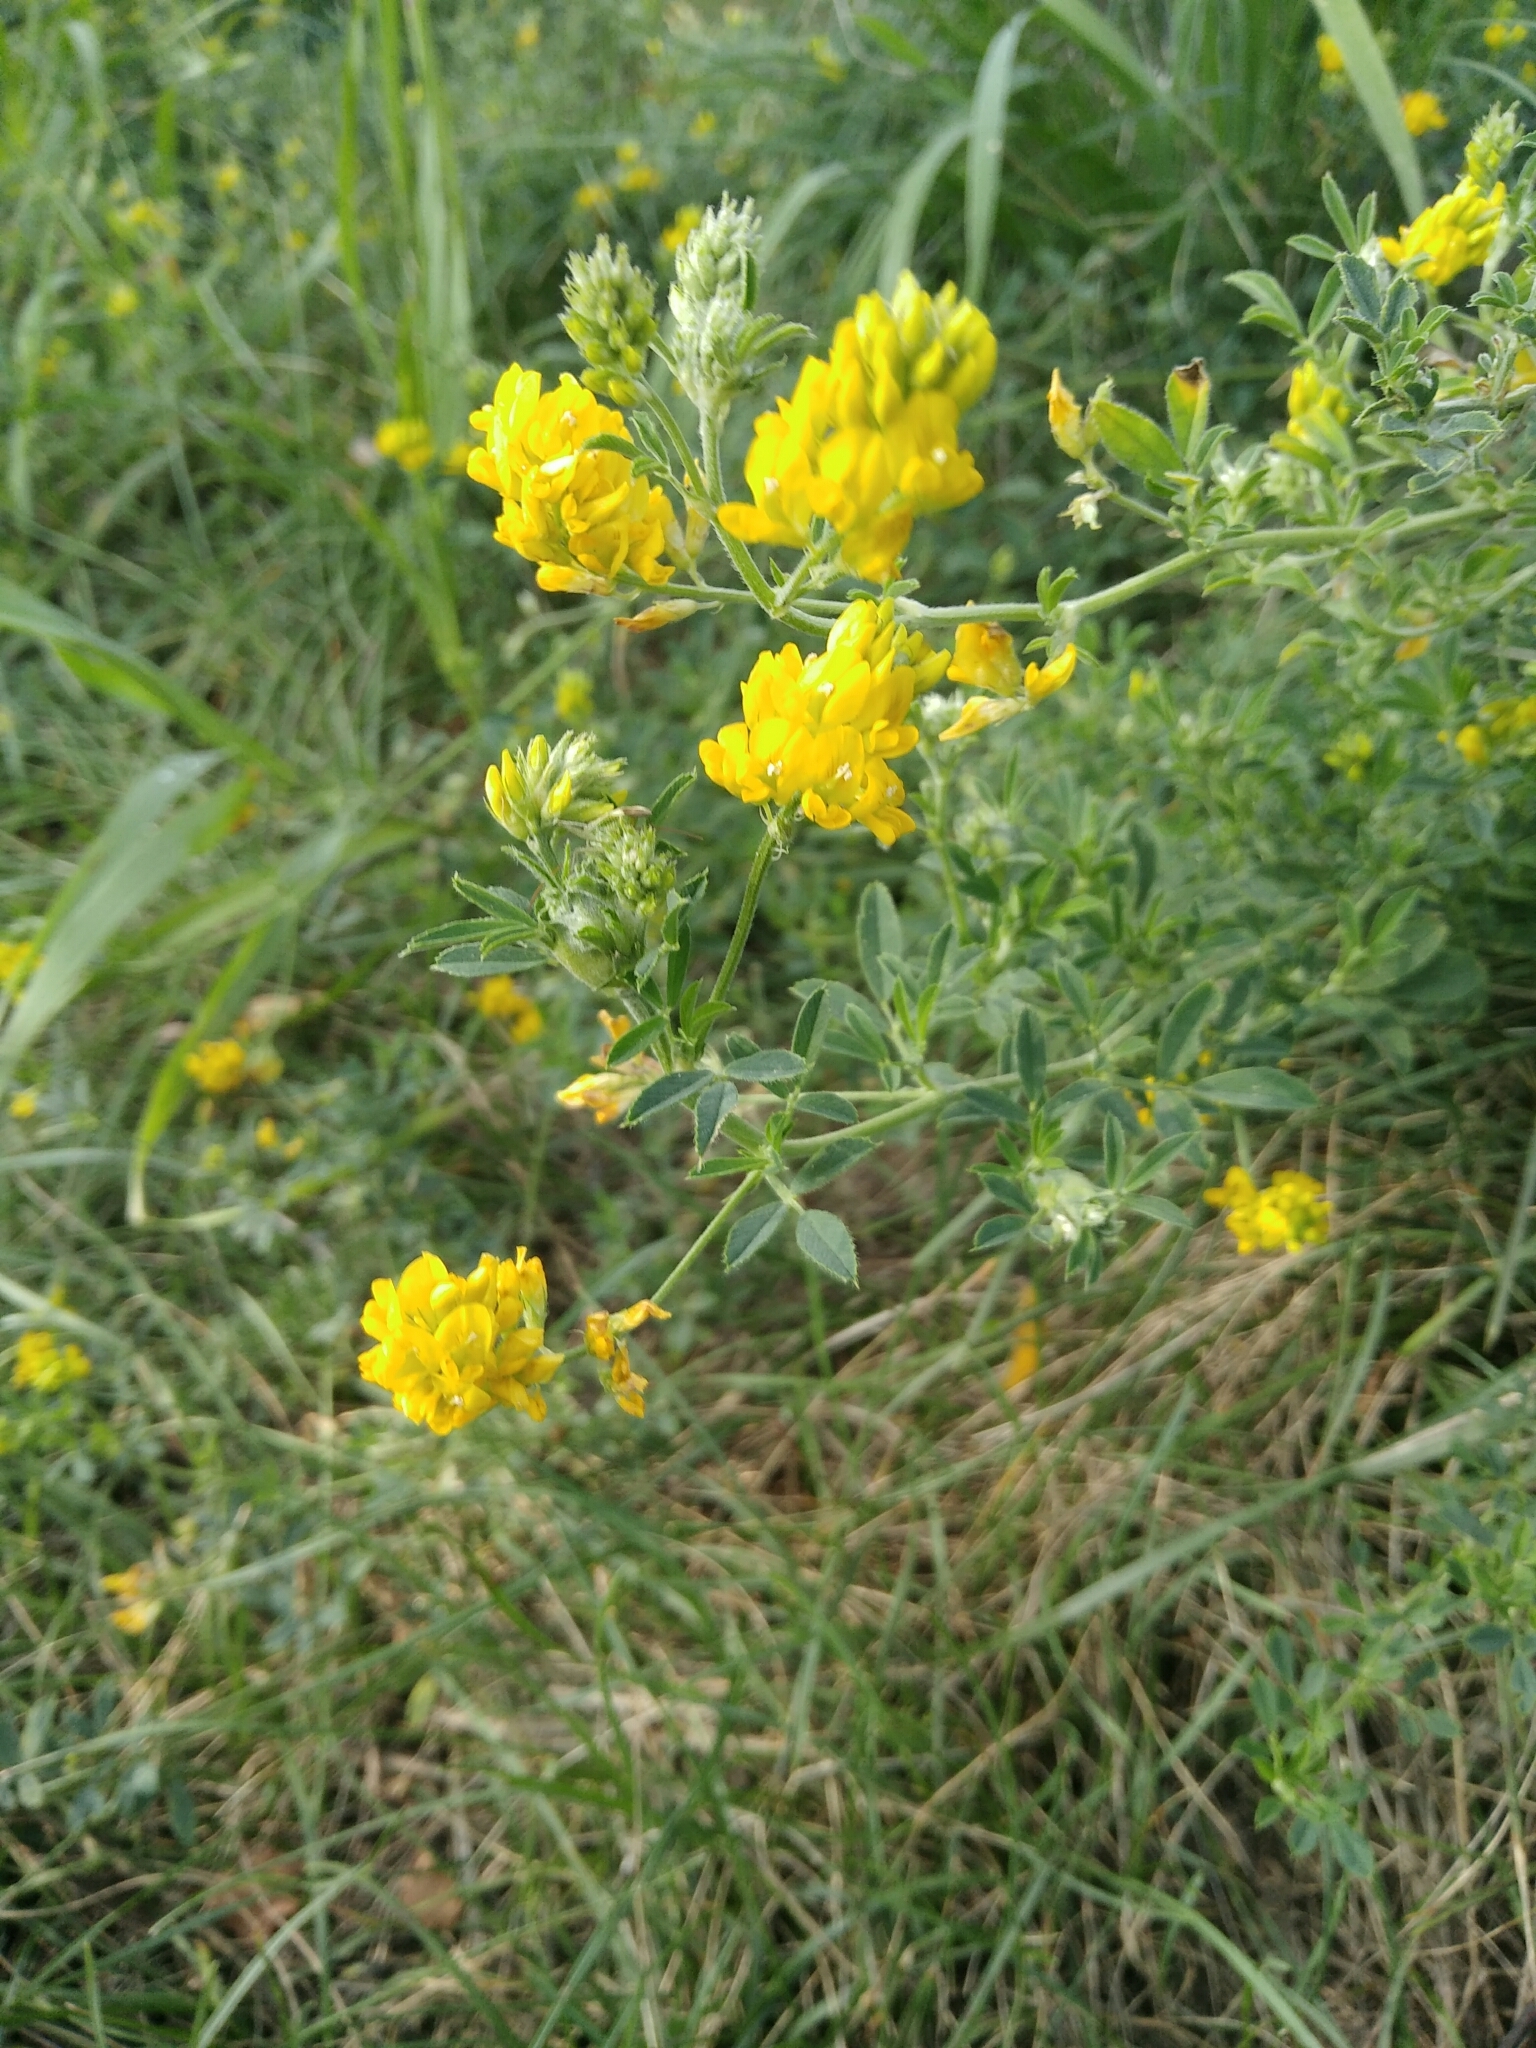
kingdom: Plantae
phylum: Tracheophyta
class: Magnoliopsida
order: Fabales
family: Fabaceae
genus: Medicago
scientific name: Medicago falcata
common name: Sickle medick
